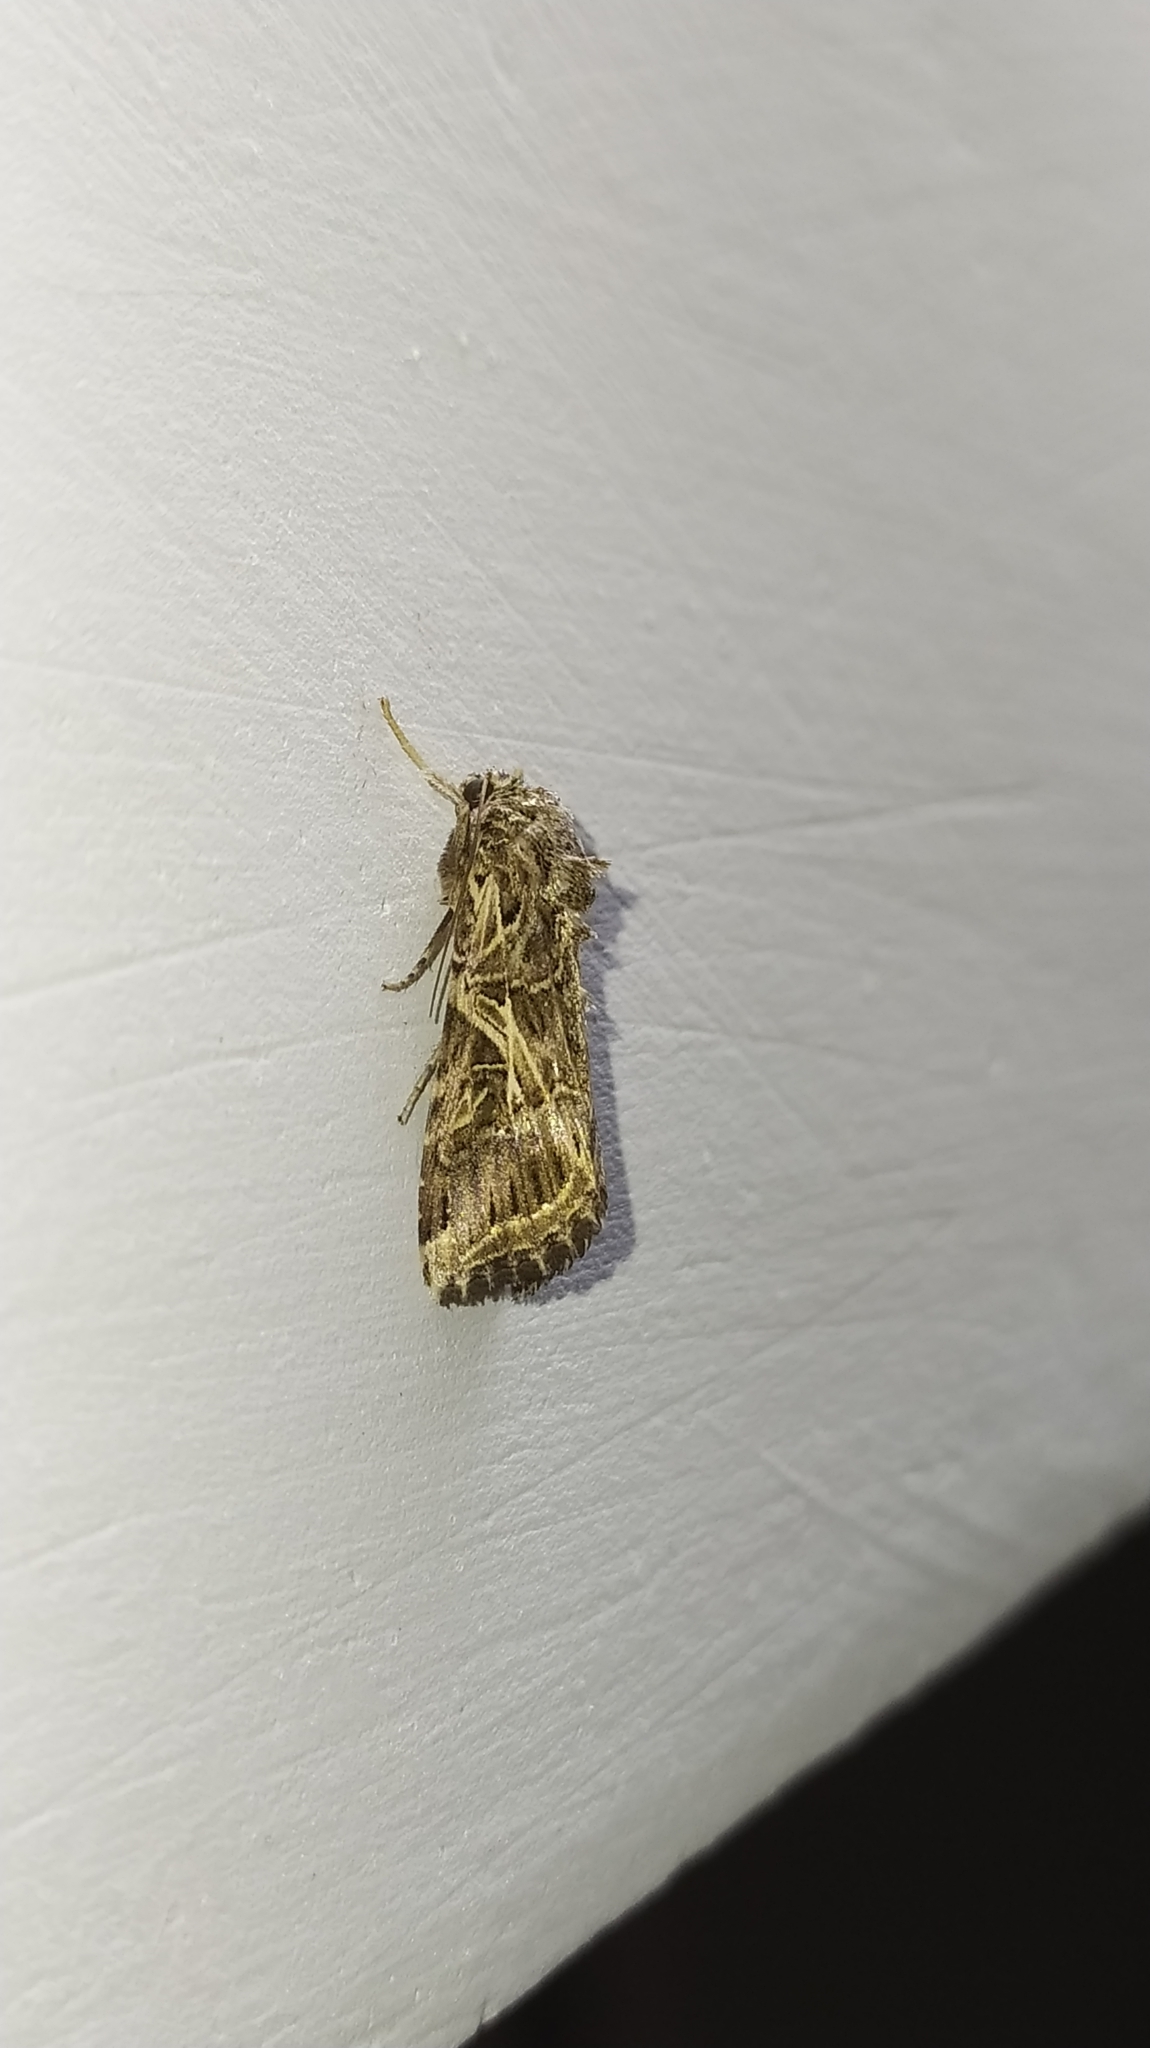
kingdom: Animalia
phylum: Arthropoda
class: Insecta
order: Lepidoptera
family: Noctuidae
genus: Spodoptera
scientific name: Spodoptera litura
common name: Asian cotton leafworm
